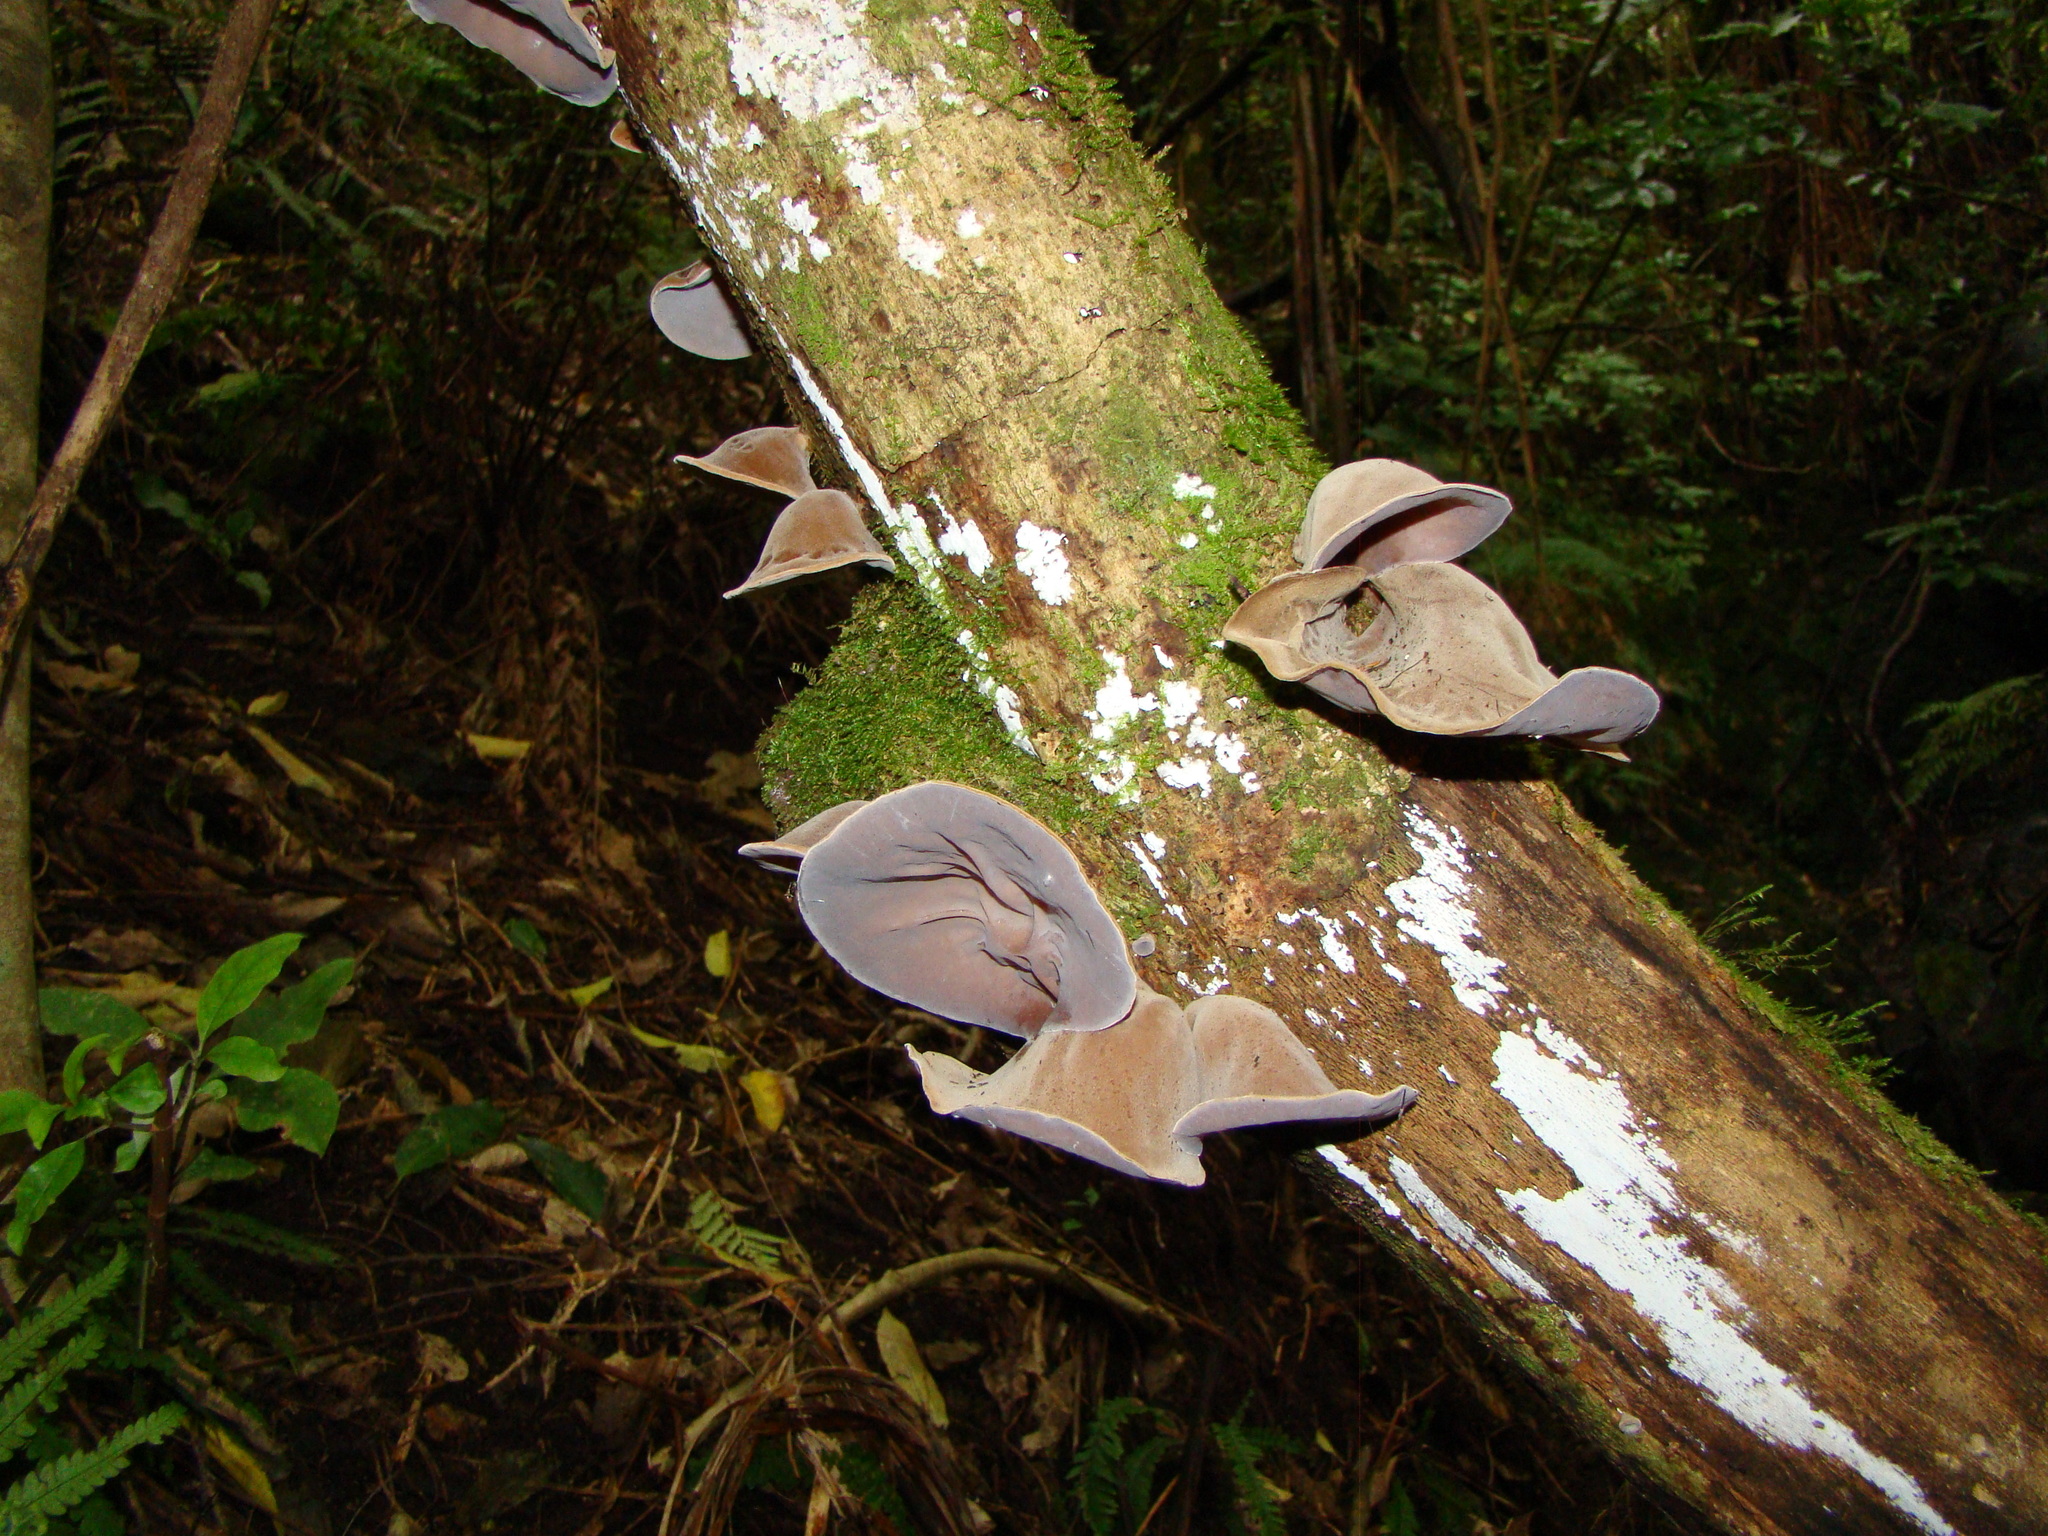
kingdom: Fungi
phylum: Basidiomycota
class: Agaricomycetes
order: Auriculariales
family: Auriculariaceae
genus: Auricularia
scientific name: Auricularia cornea
